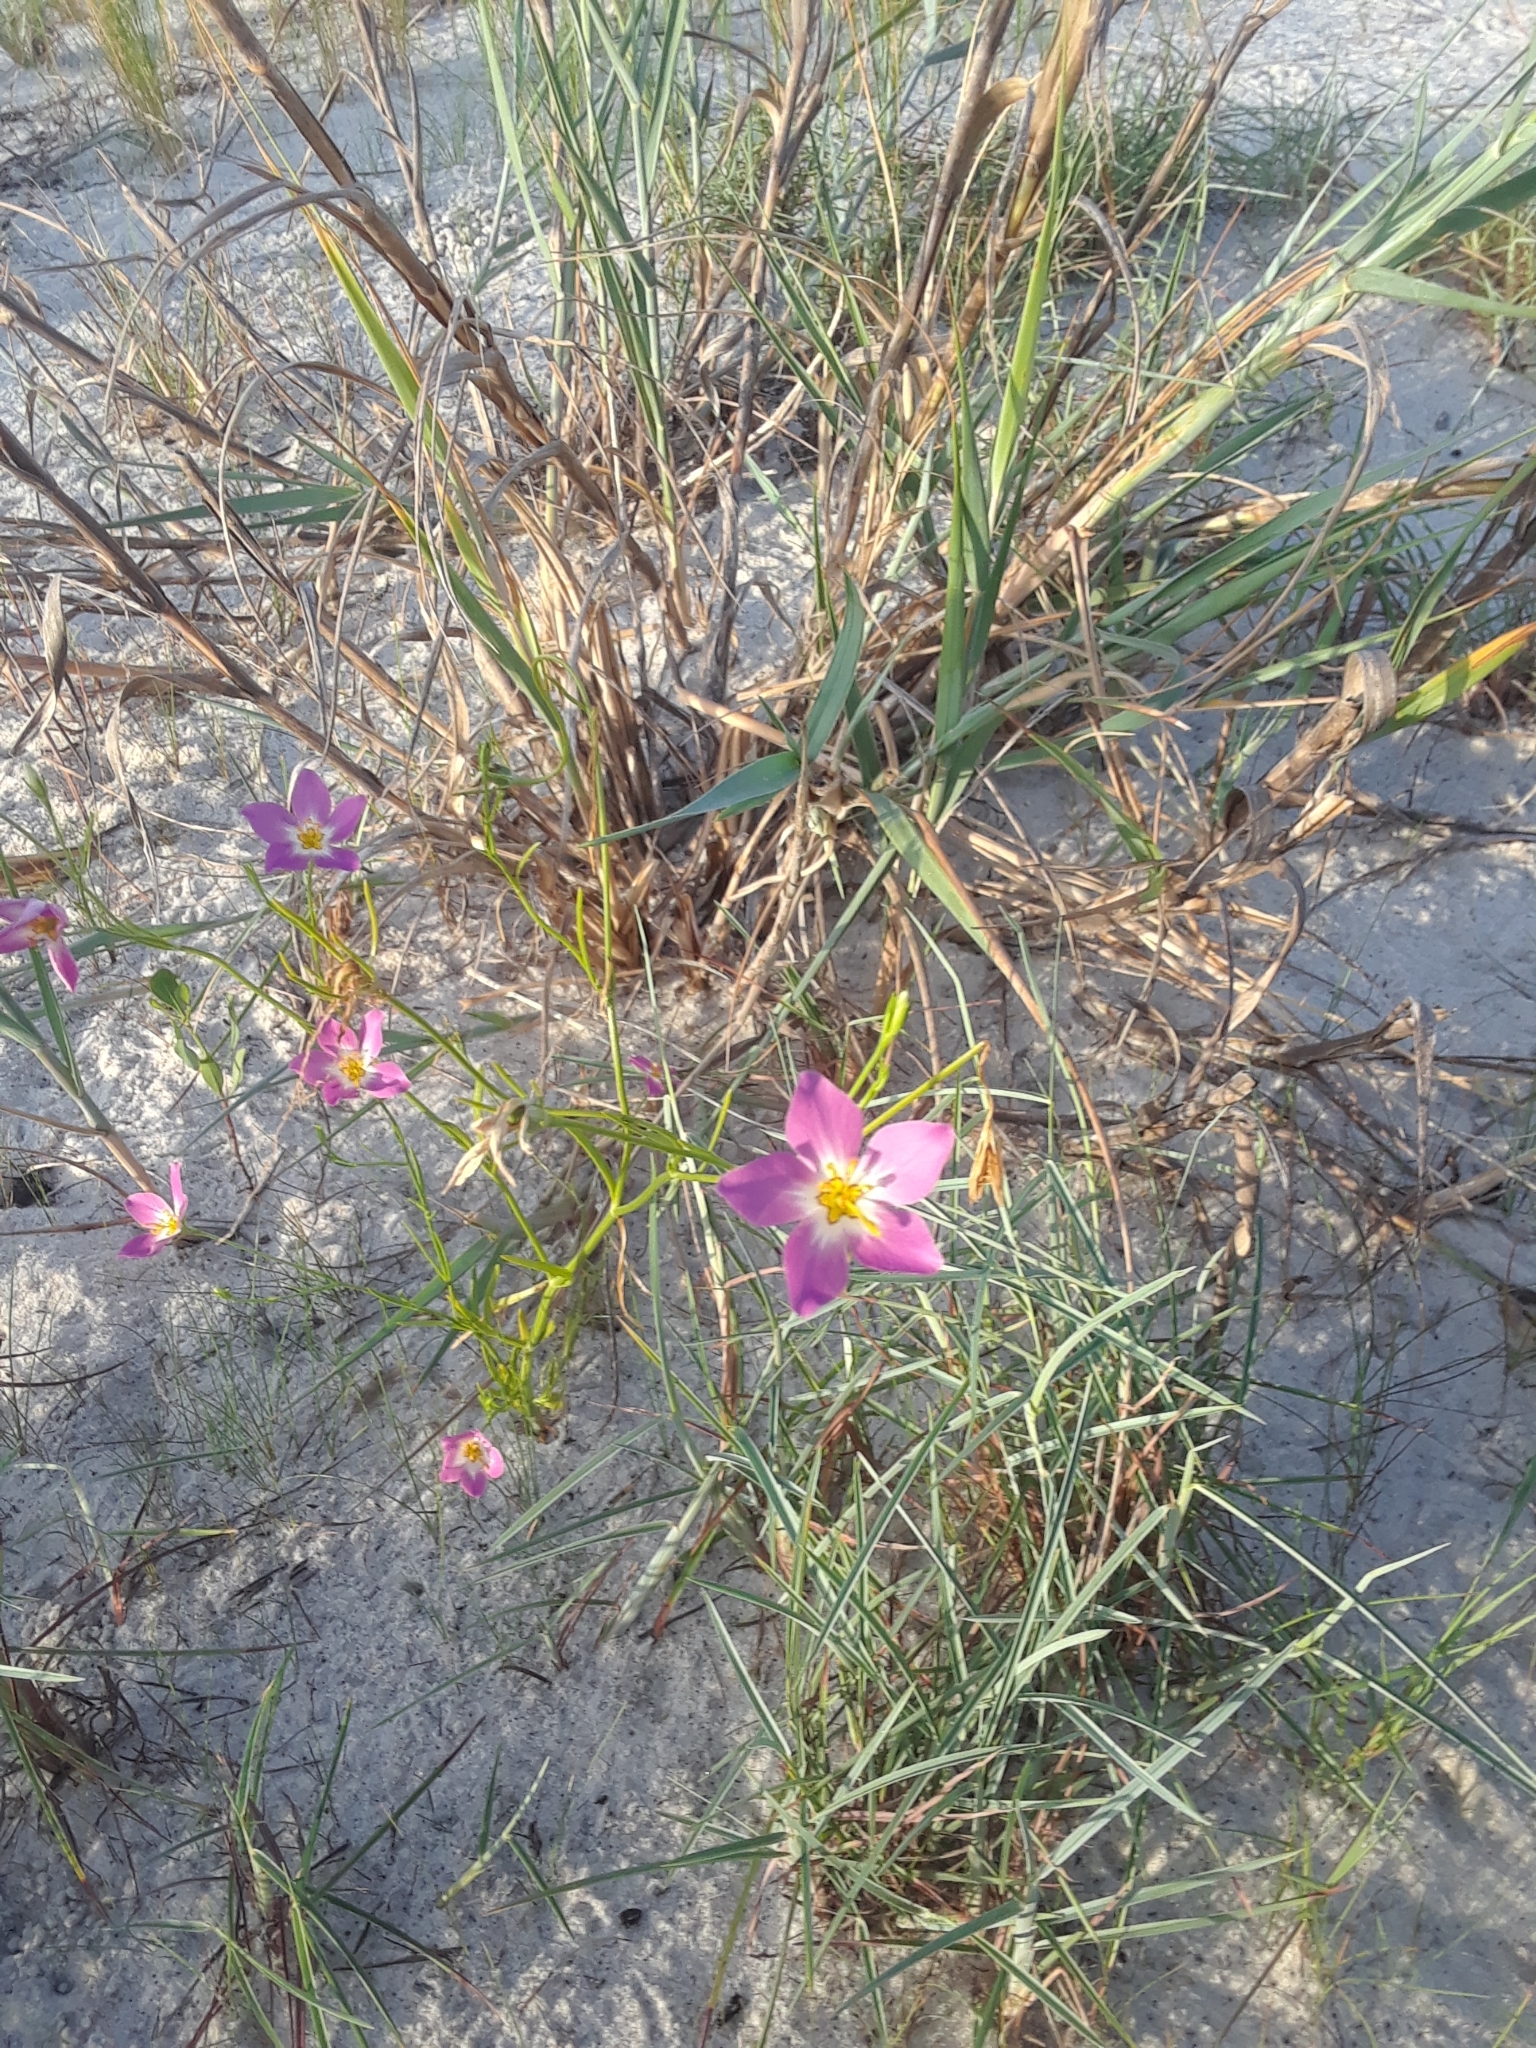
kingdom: Plantae
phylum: Tracheophyta
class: Magnoliopsida
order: Gentianales
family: Gentianaceae
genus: Sabatia
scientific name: Sabatia stellaris
